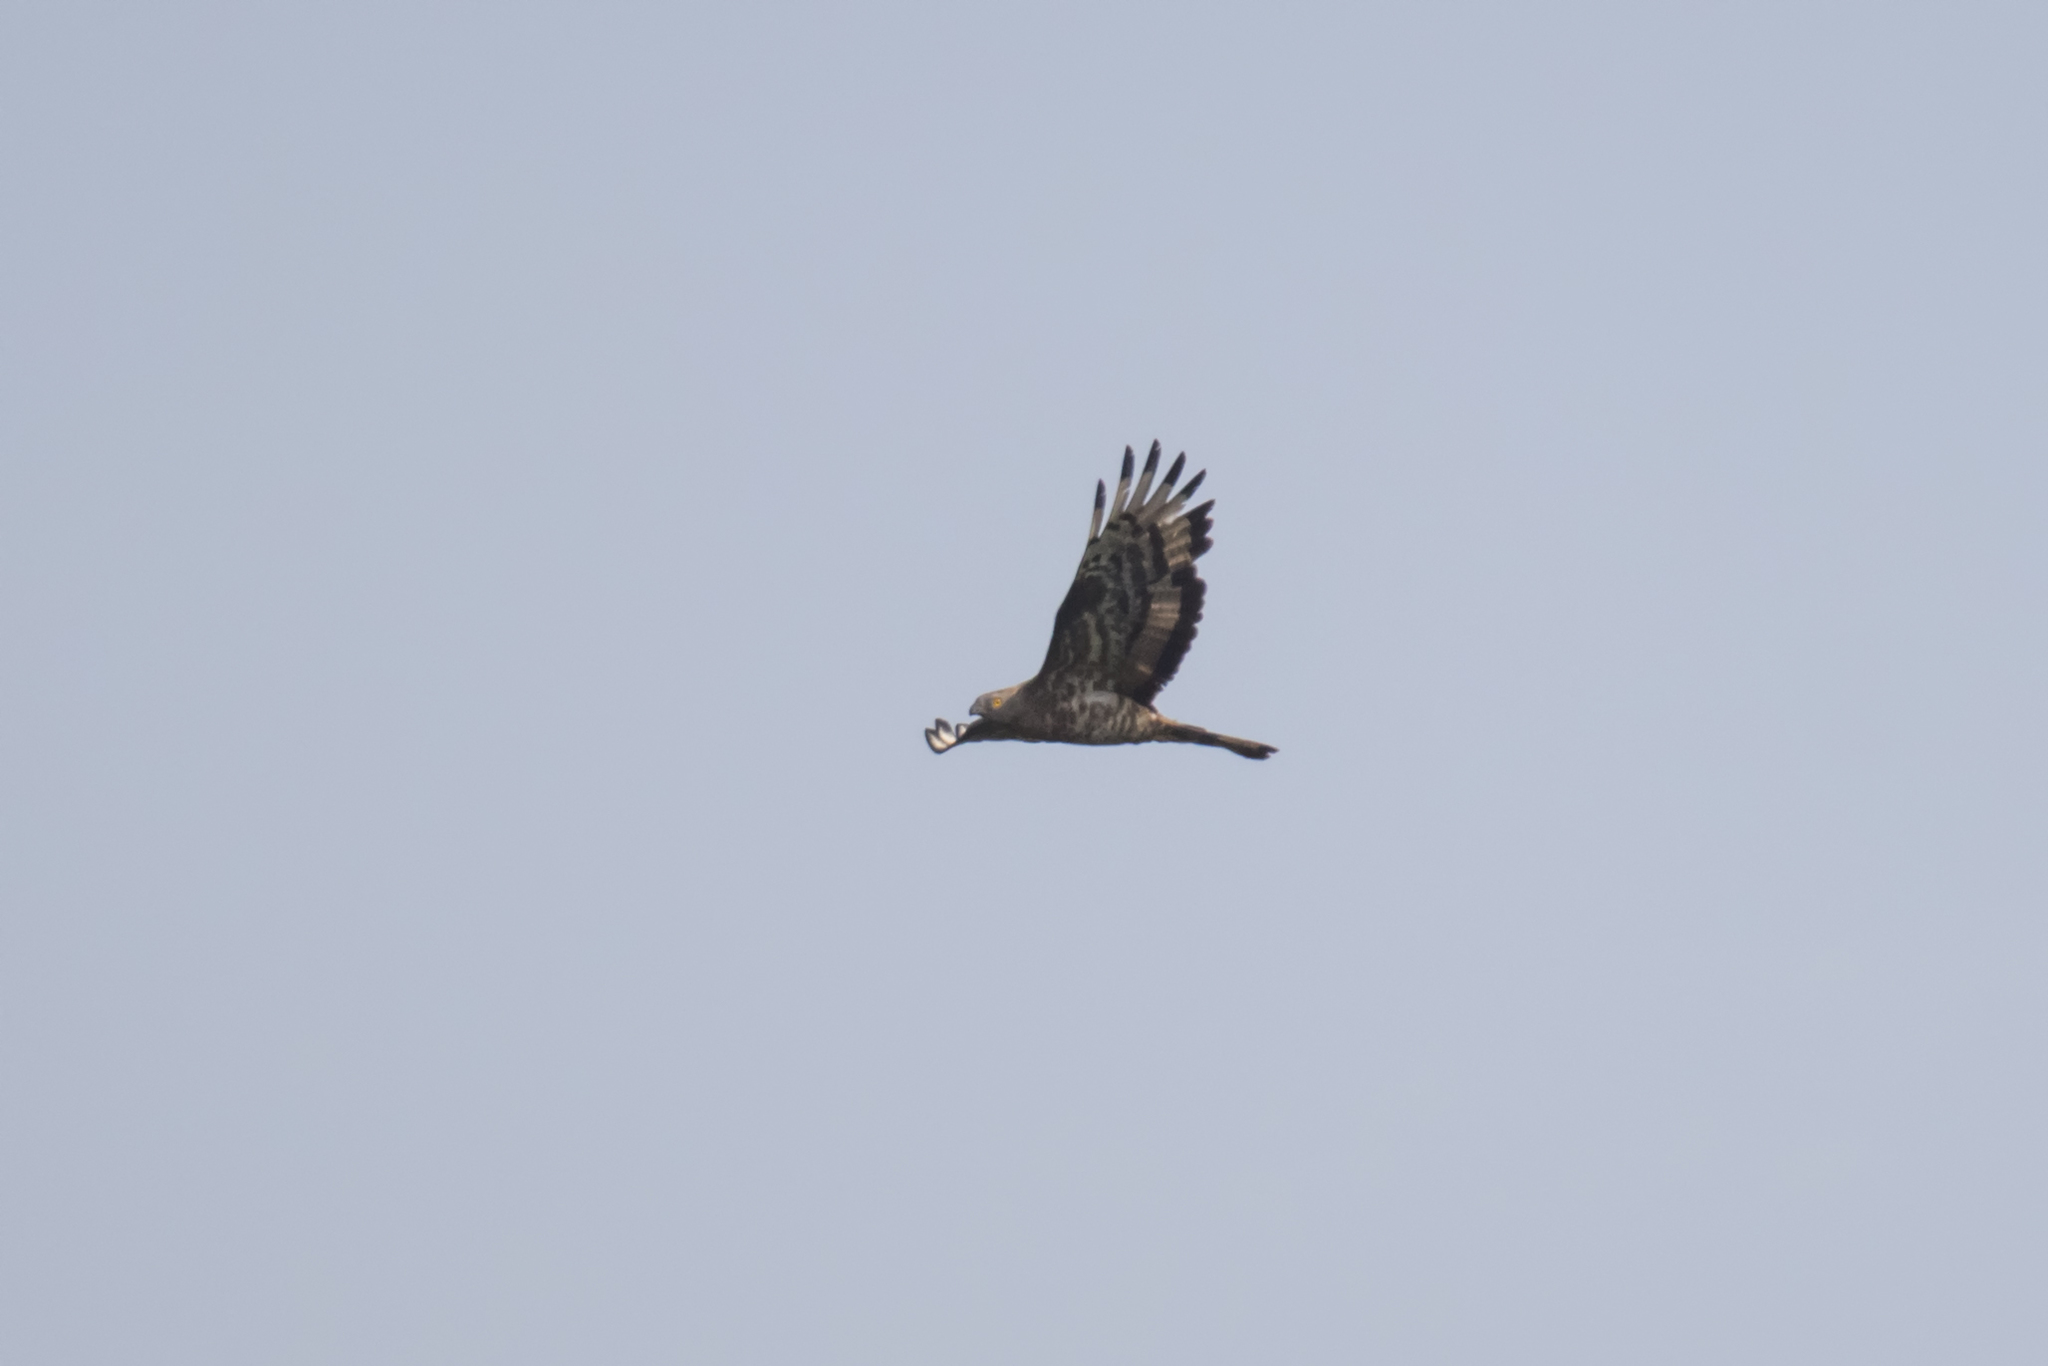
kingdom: Animalia
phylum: Chordata
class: Aves
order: Accipitriformes
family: Accipitridae
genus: Pernis
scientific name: Pernis apivorus
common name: European honey buzzard
